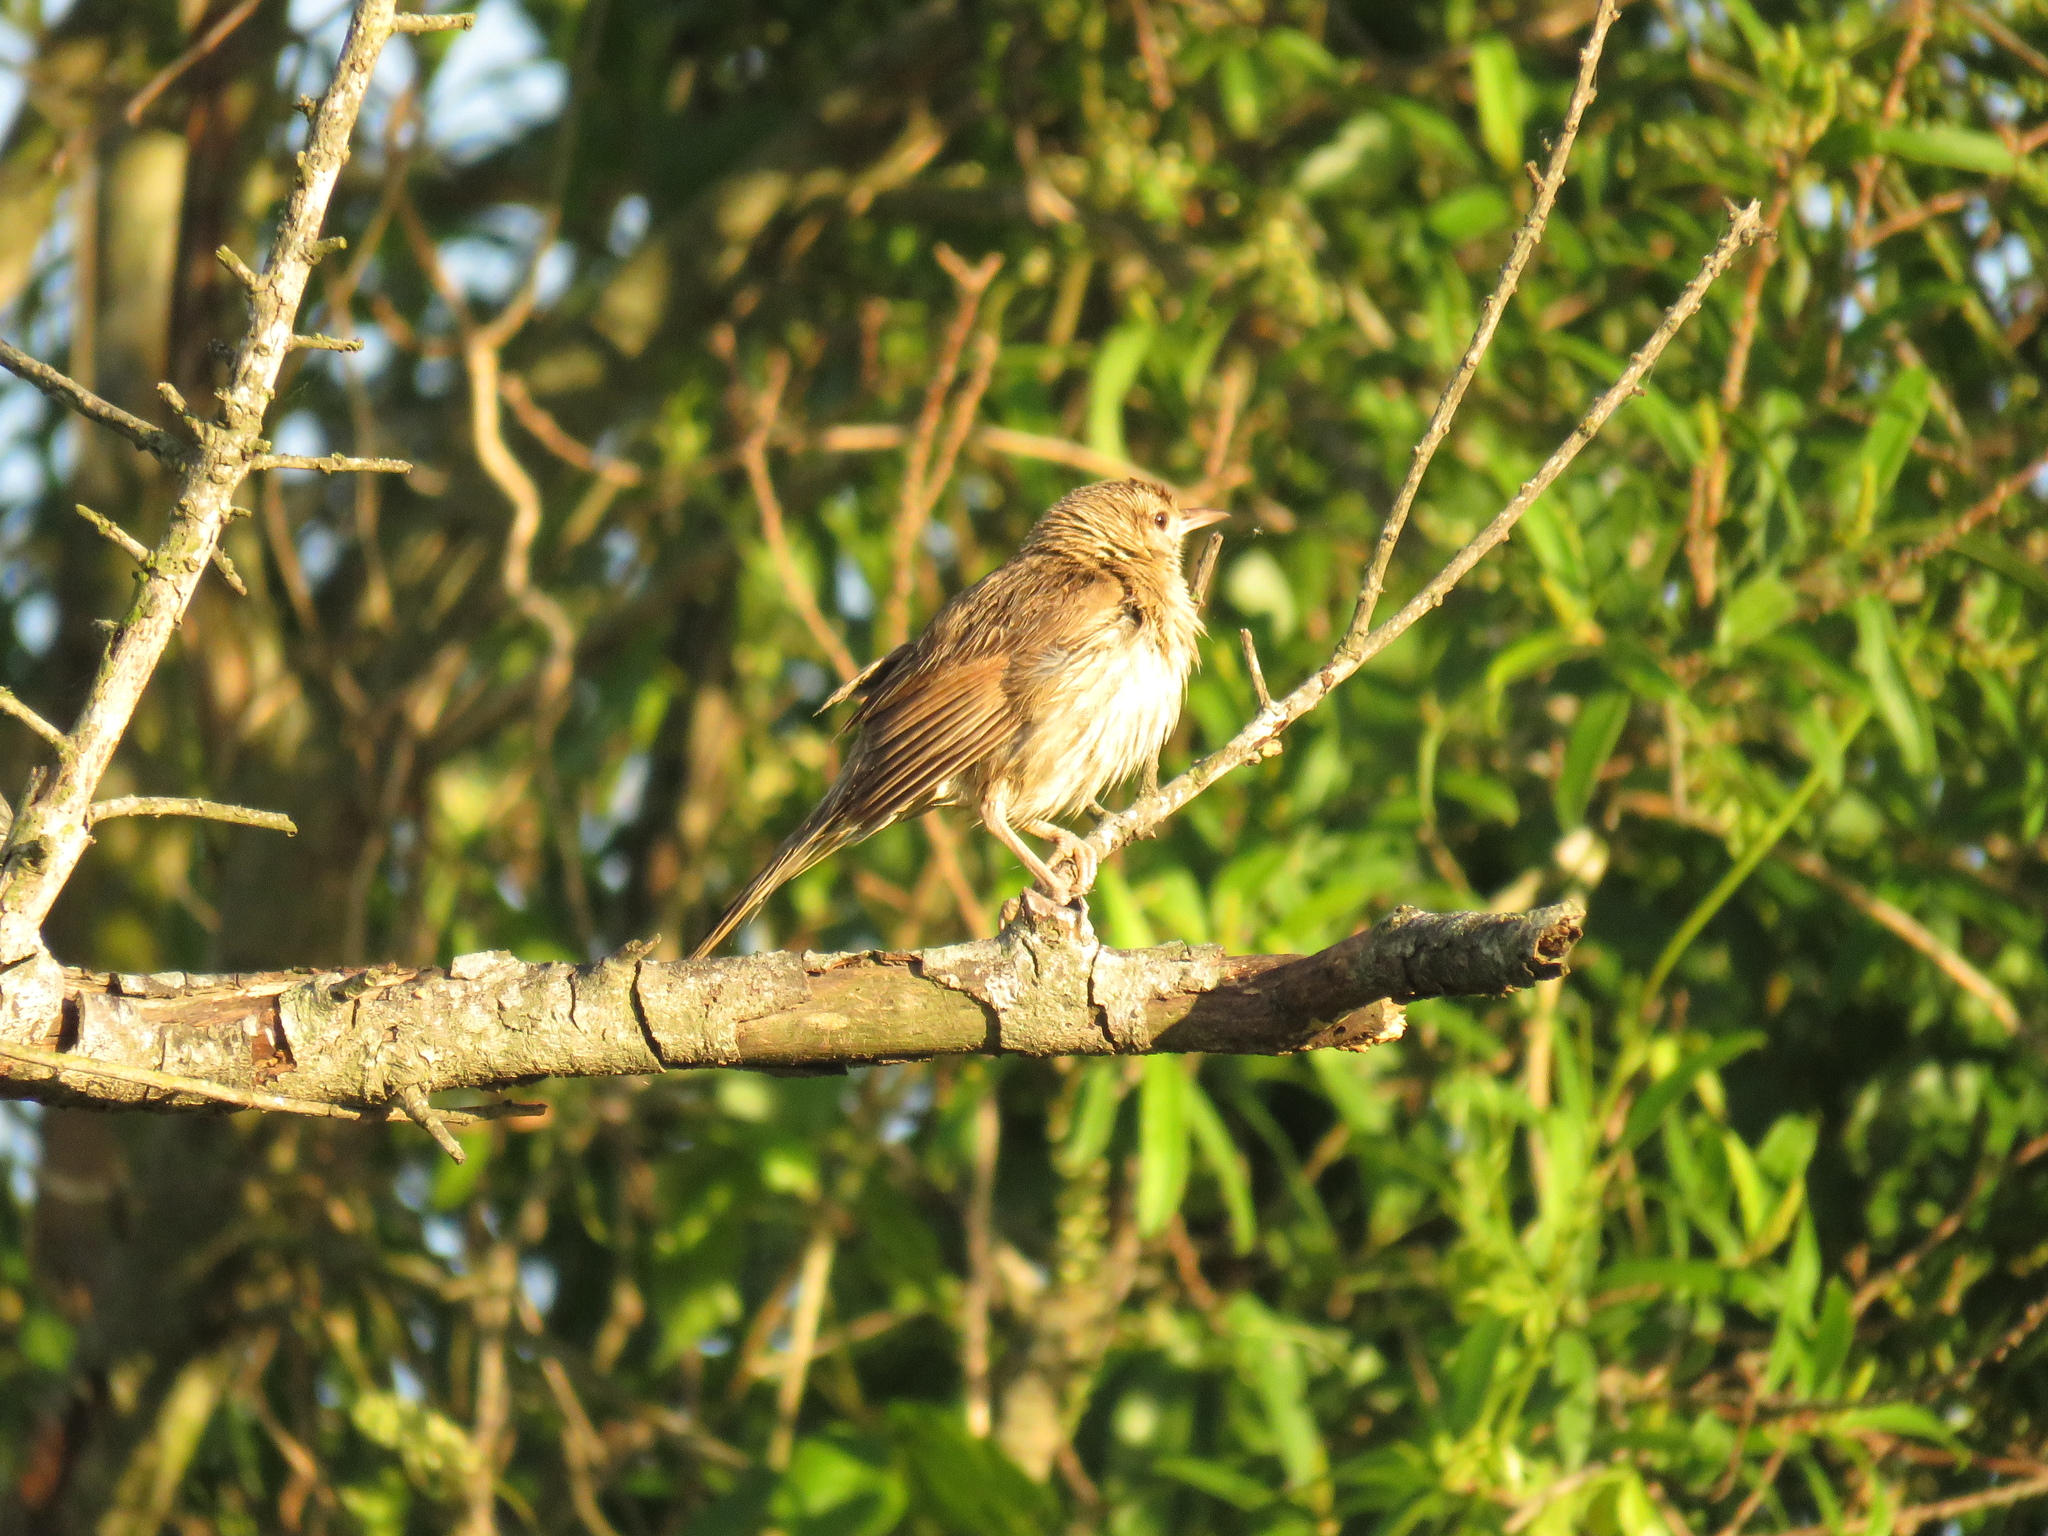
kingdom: Animalia
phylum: Chordata
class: Aves
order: Passeriformes
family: Furnariidae
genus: Anumbius
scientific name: Anumbius annumbi
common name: Firewood-gatherer
